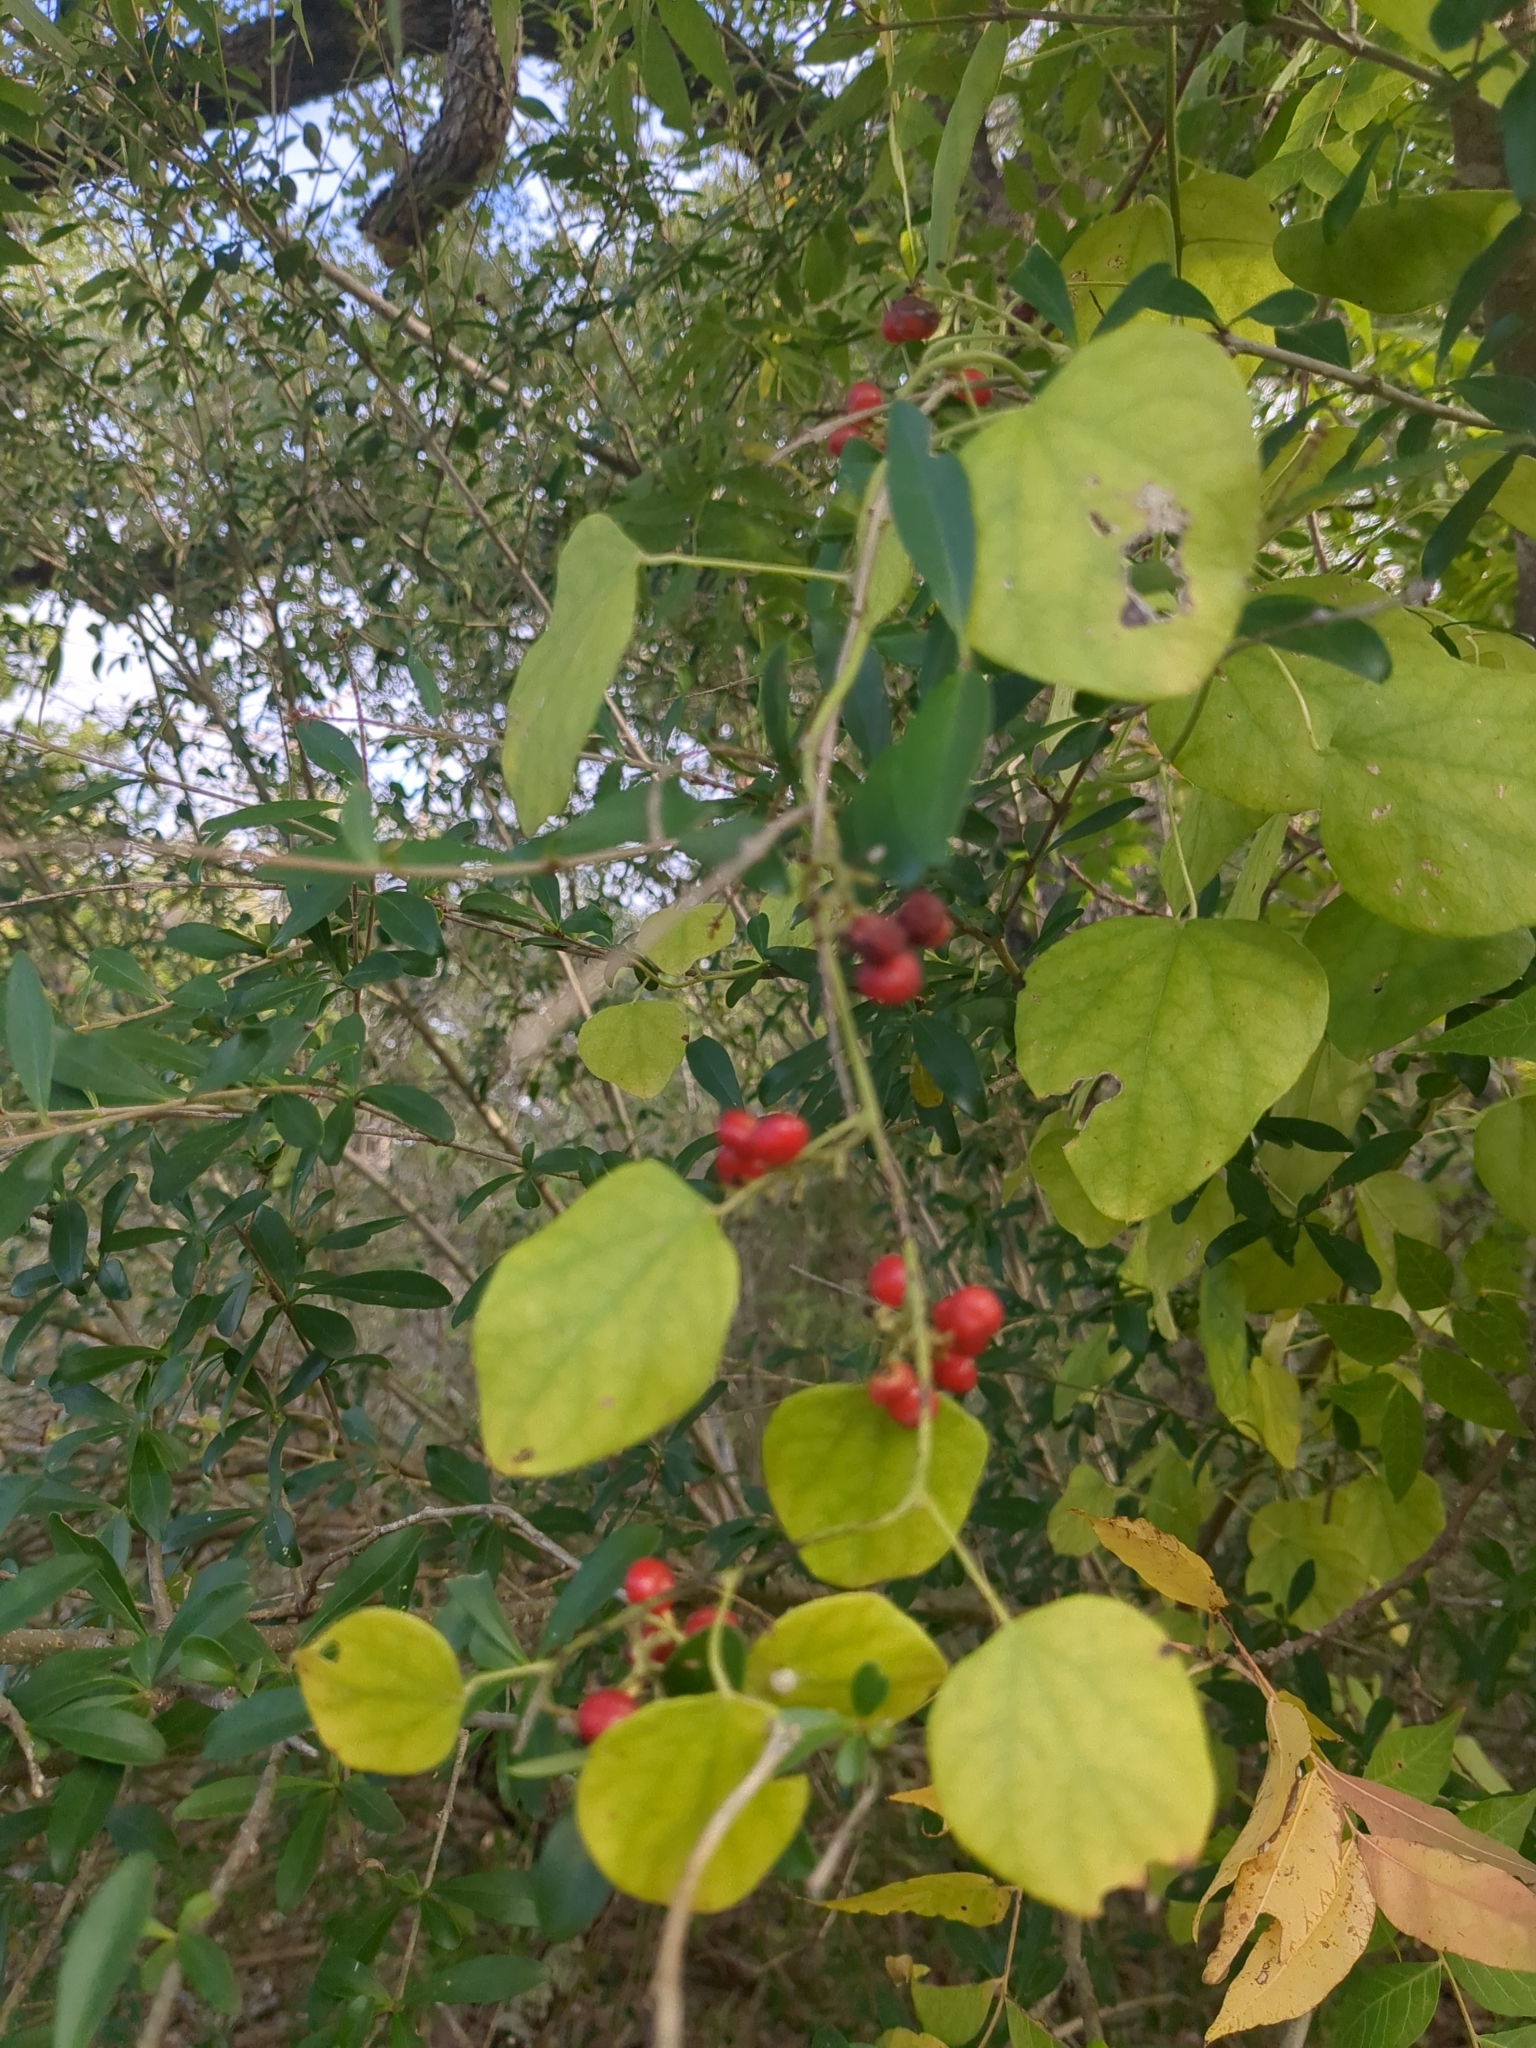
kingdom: Plantae
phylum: Tracheophyta
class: Magnoliopsida
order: Ranunculales
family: Menispermaceae
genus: Cocculus
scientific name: Cocculus carolinus
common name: Carolina moonseed
